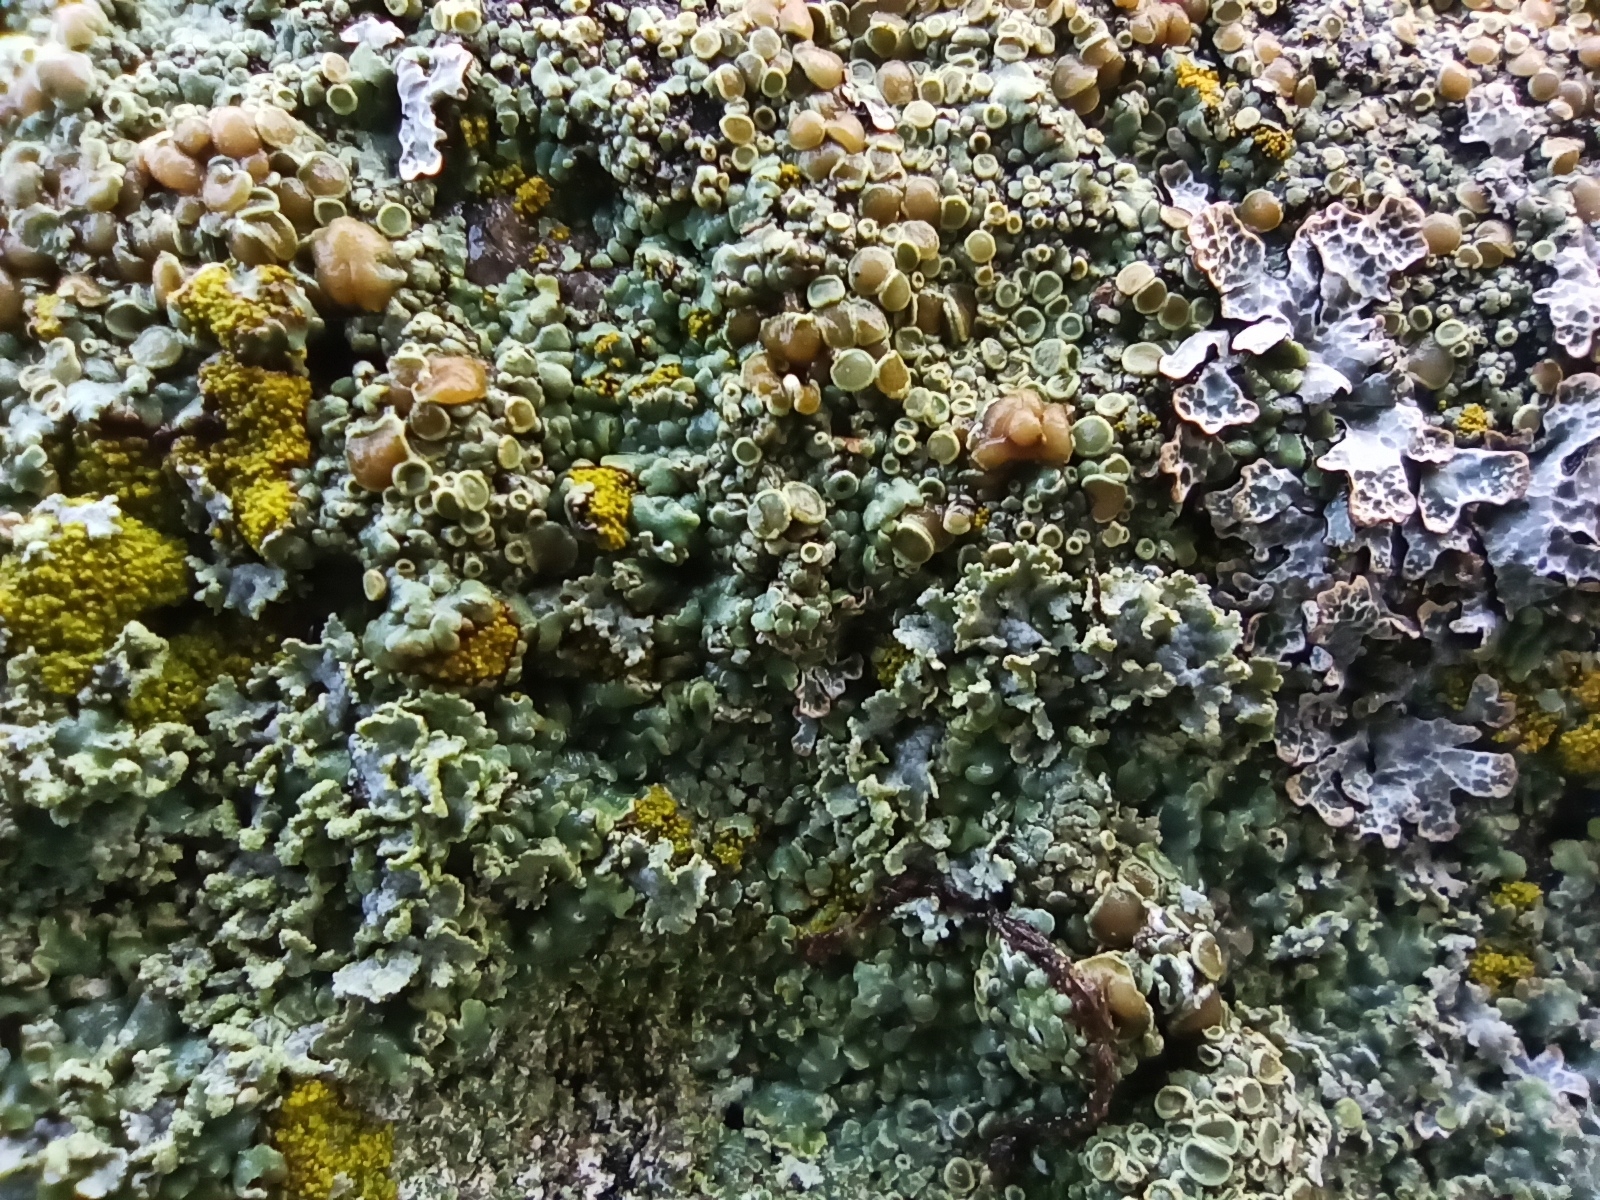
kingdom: Fungi
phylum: Ascomycota
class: Lecanoromycetes
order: Lecanorales
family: Lecanoraceae
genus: Protoparmeliopsis
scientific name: Protoparmeliopsis muralis
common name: Stonewall rim lichen
